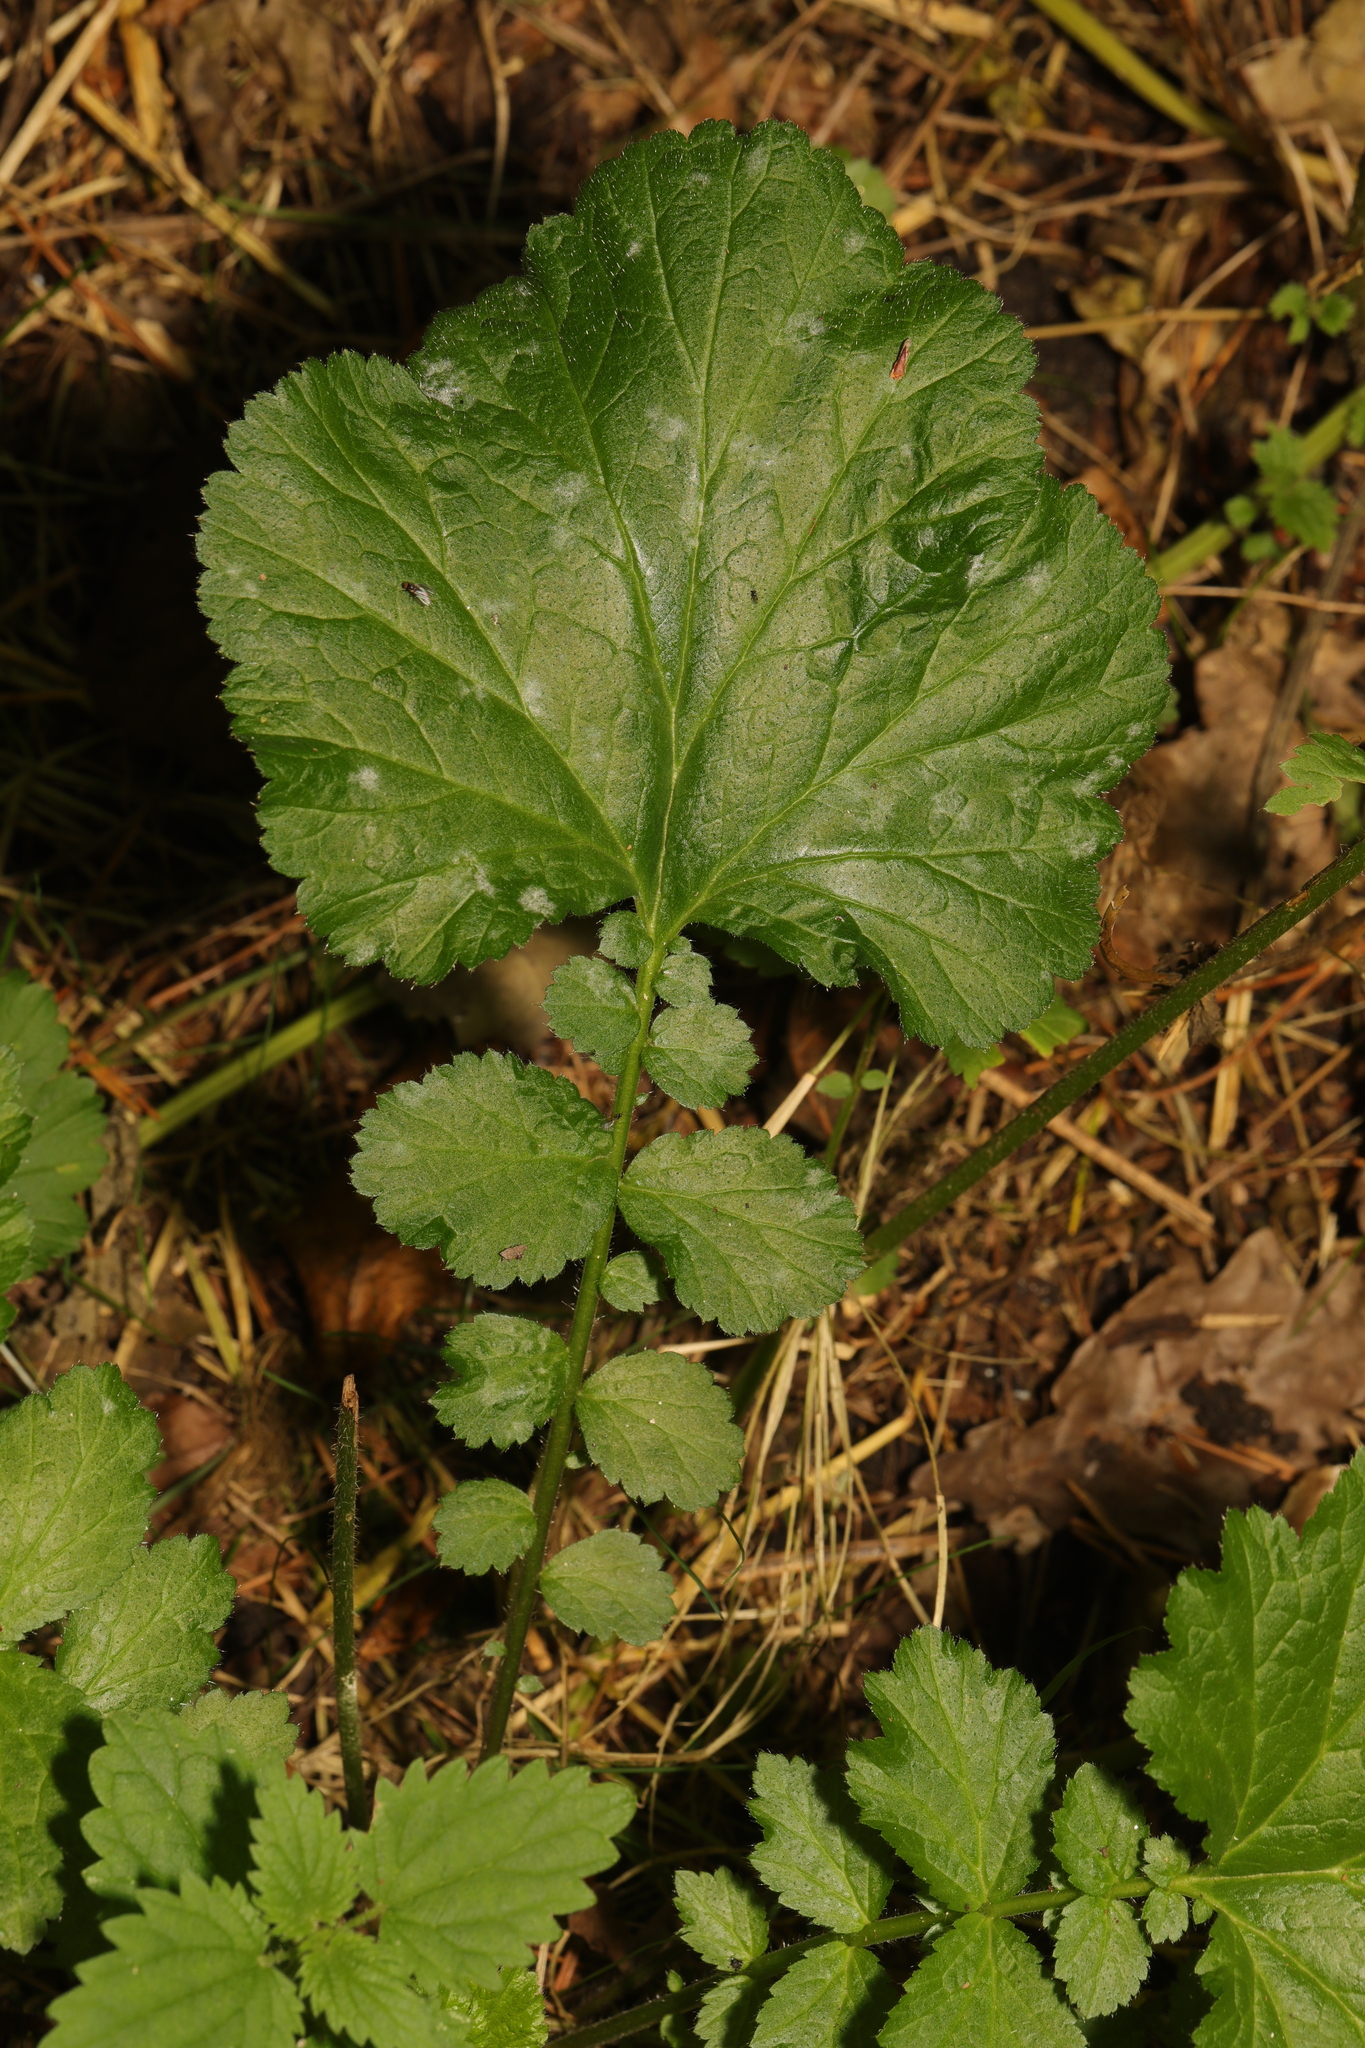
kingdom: Plantae
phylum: Tracheophyta
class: Magnoliopsida
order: Rosales
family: Rosaceae
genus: Geum
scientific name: Geum urbanum
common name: Wood avens
